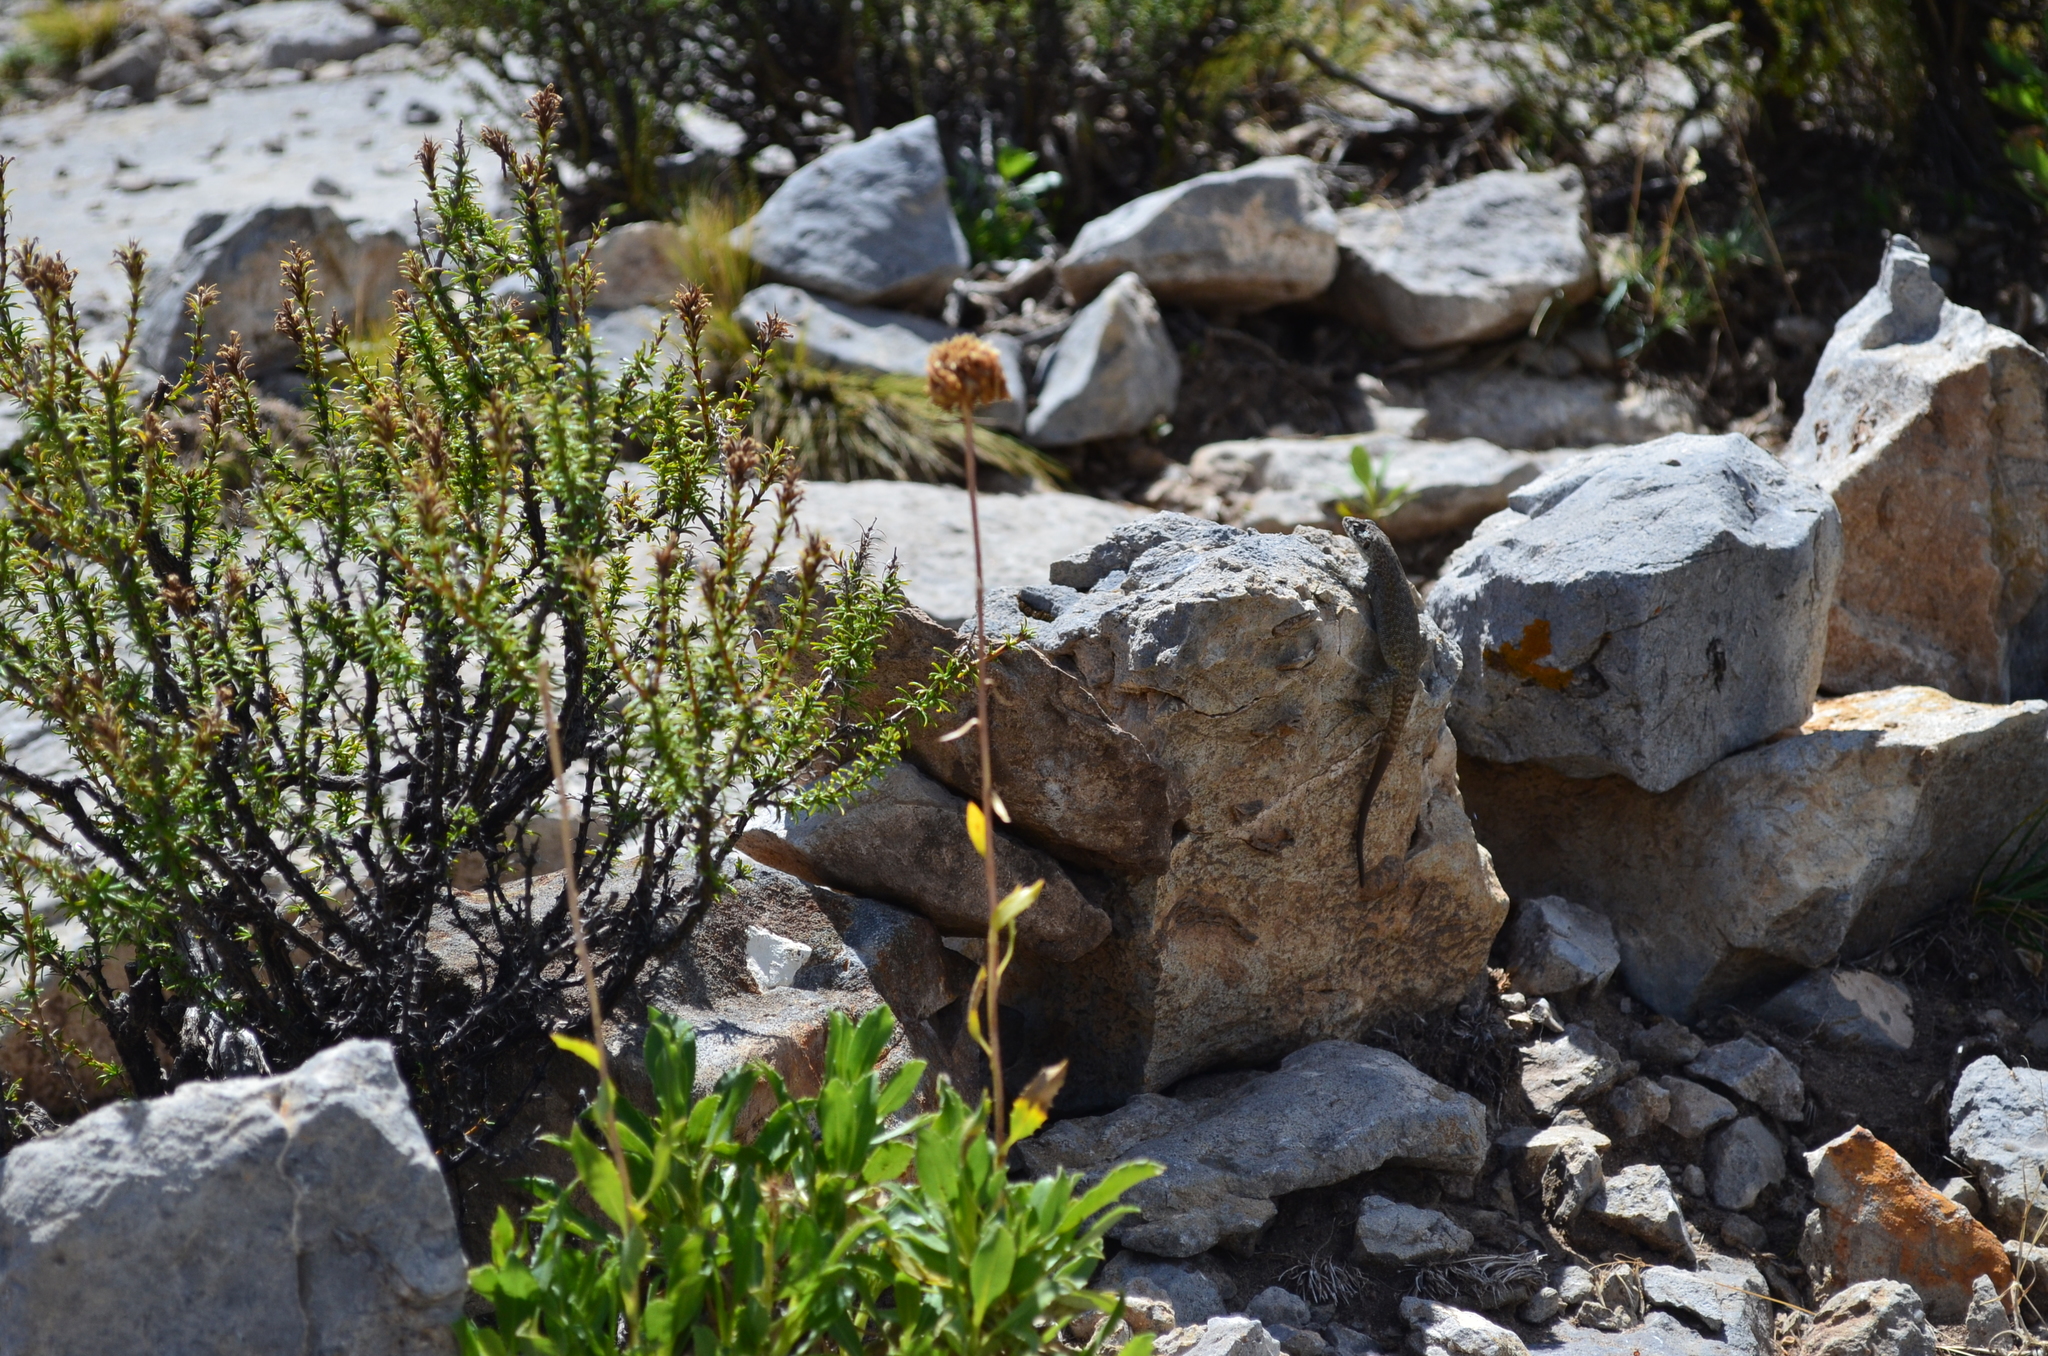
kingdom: Animalia
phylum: Chordata
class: Squamata
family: Liolaemidae
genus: Liolaemus
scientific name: Liolaemus austromendocinus
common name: Austromendocino tree iguana
